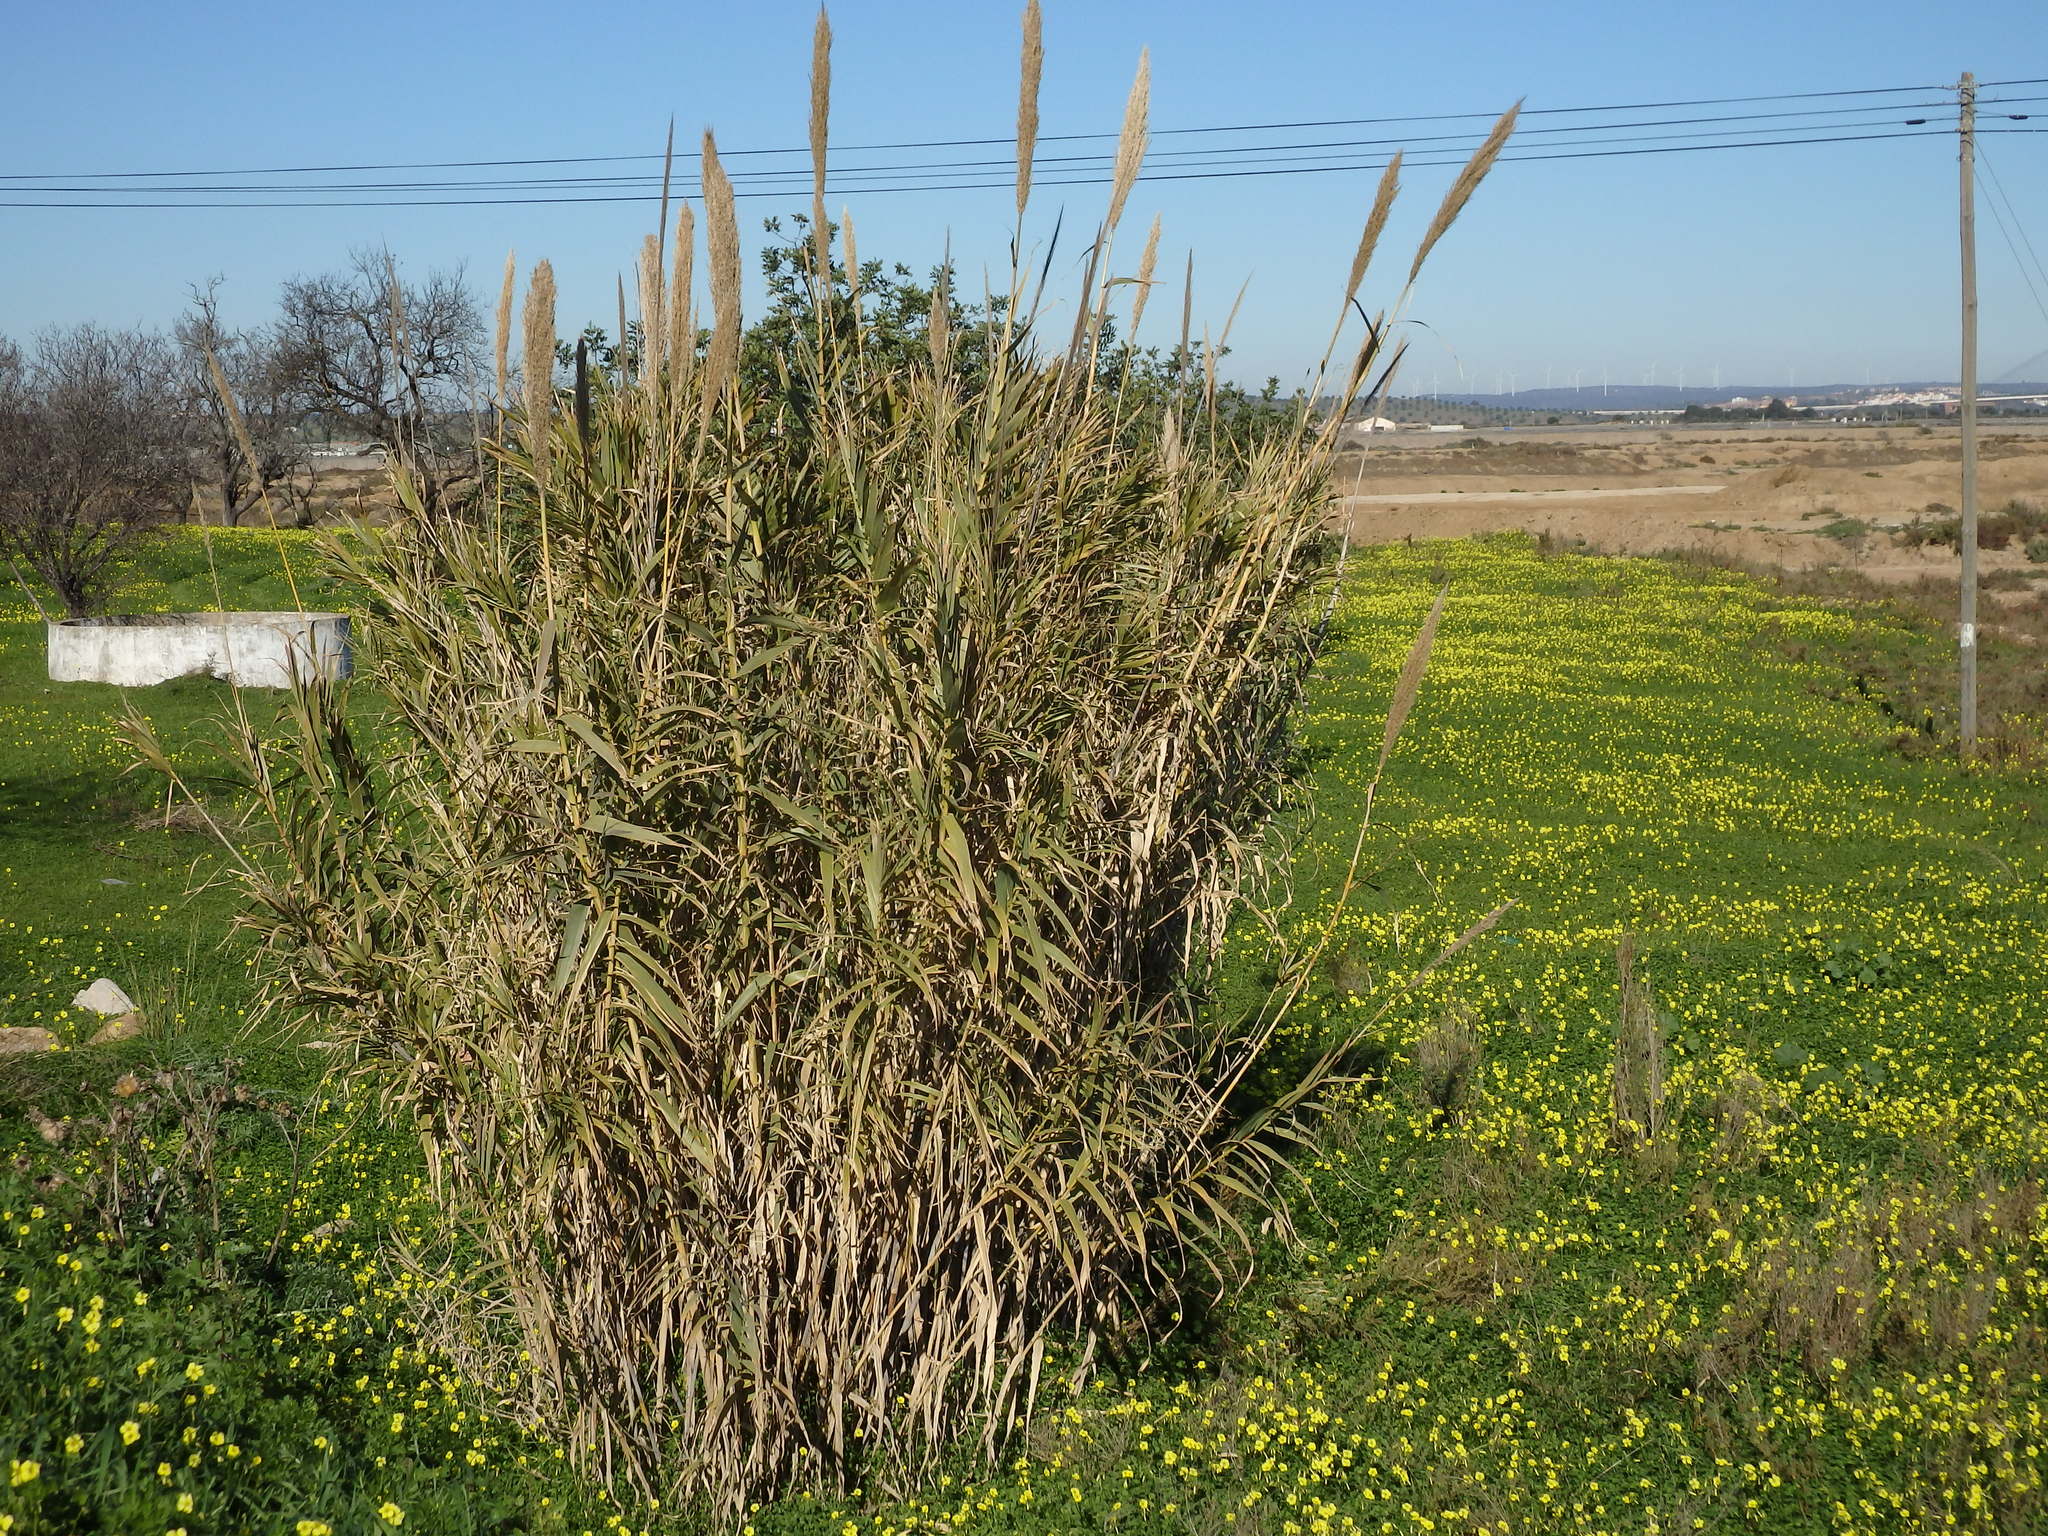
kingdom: Plantae
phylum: Tracheophyta
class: Liliopsida
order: Poales
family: Poaceae
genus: Arundo
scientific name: Arundo donax
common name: Giant reed
